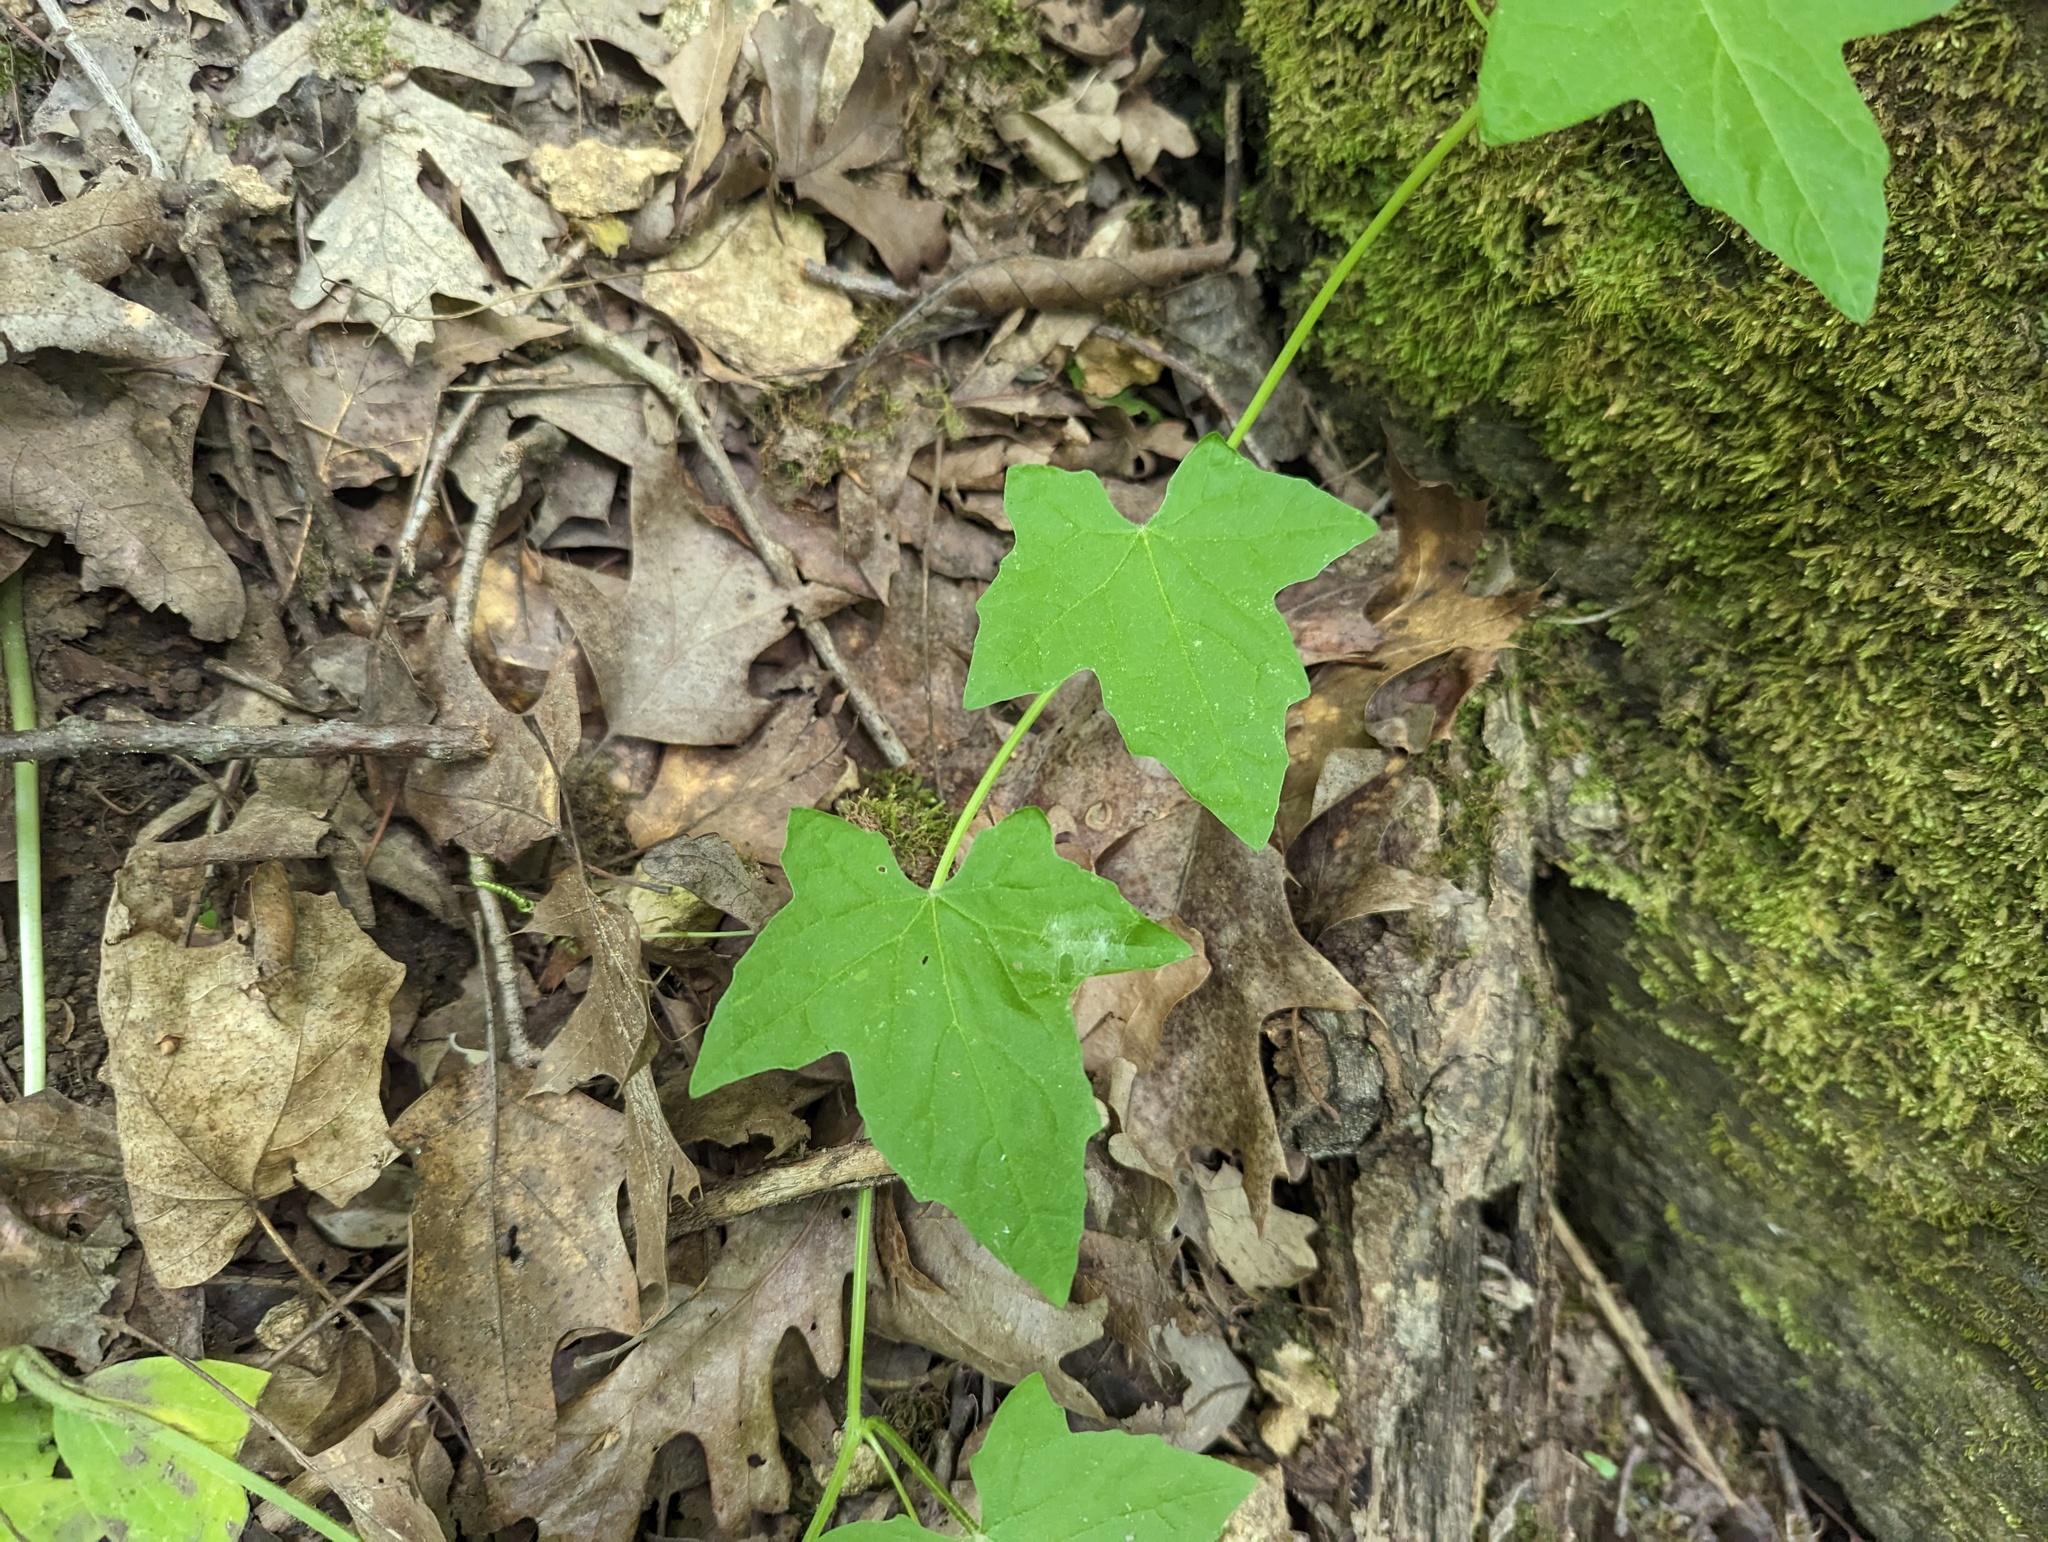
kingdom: Plantae
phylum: Tracheophyta
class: Magnoliopsida
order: Cucurbitales
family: Cucurbitaceae
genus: Echinocystis
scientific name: Echinocystis lobata
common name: Wild cucumber
